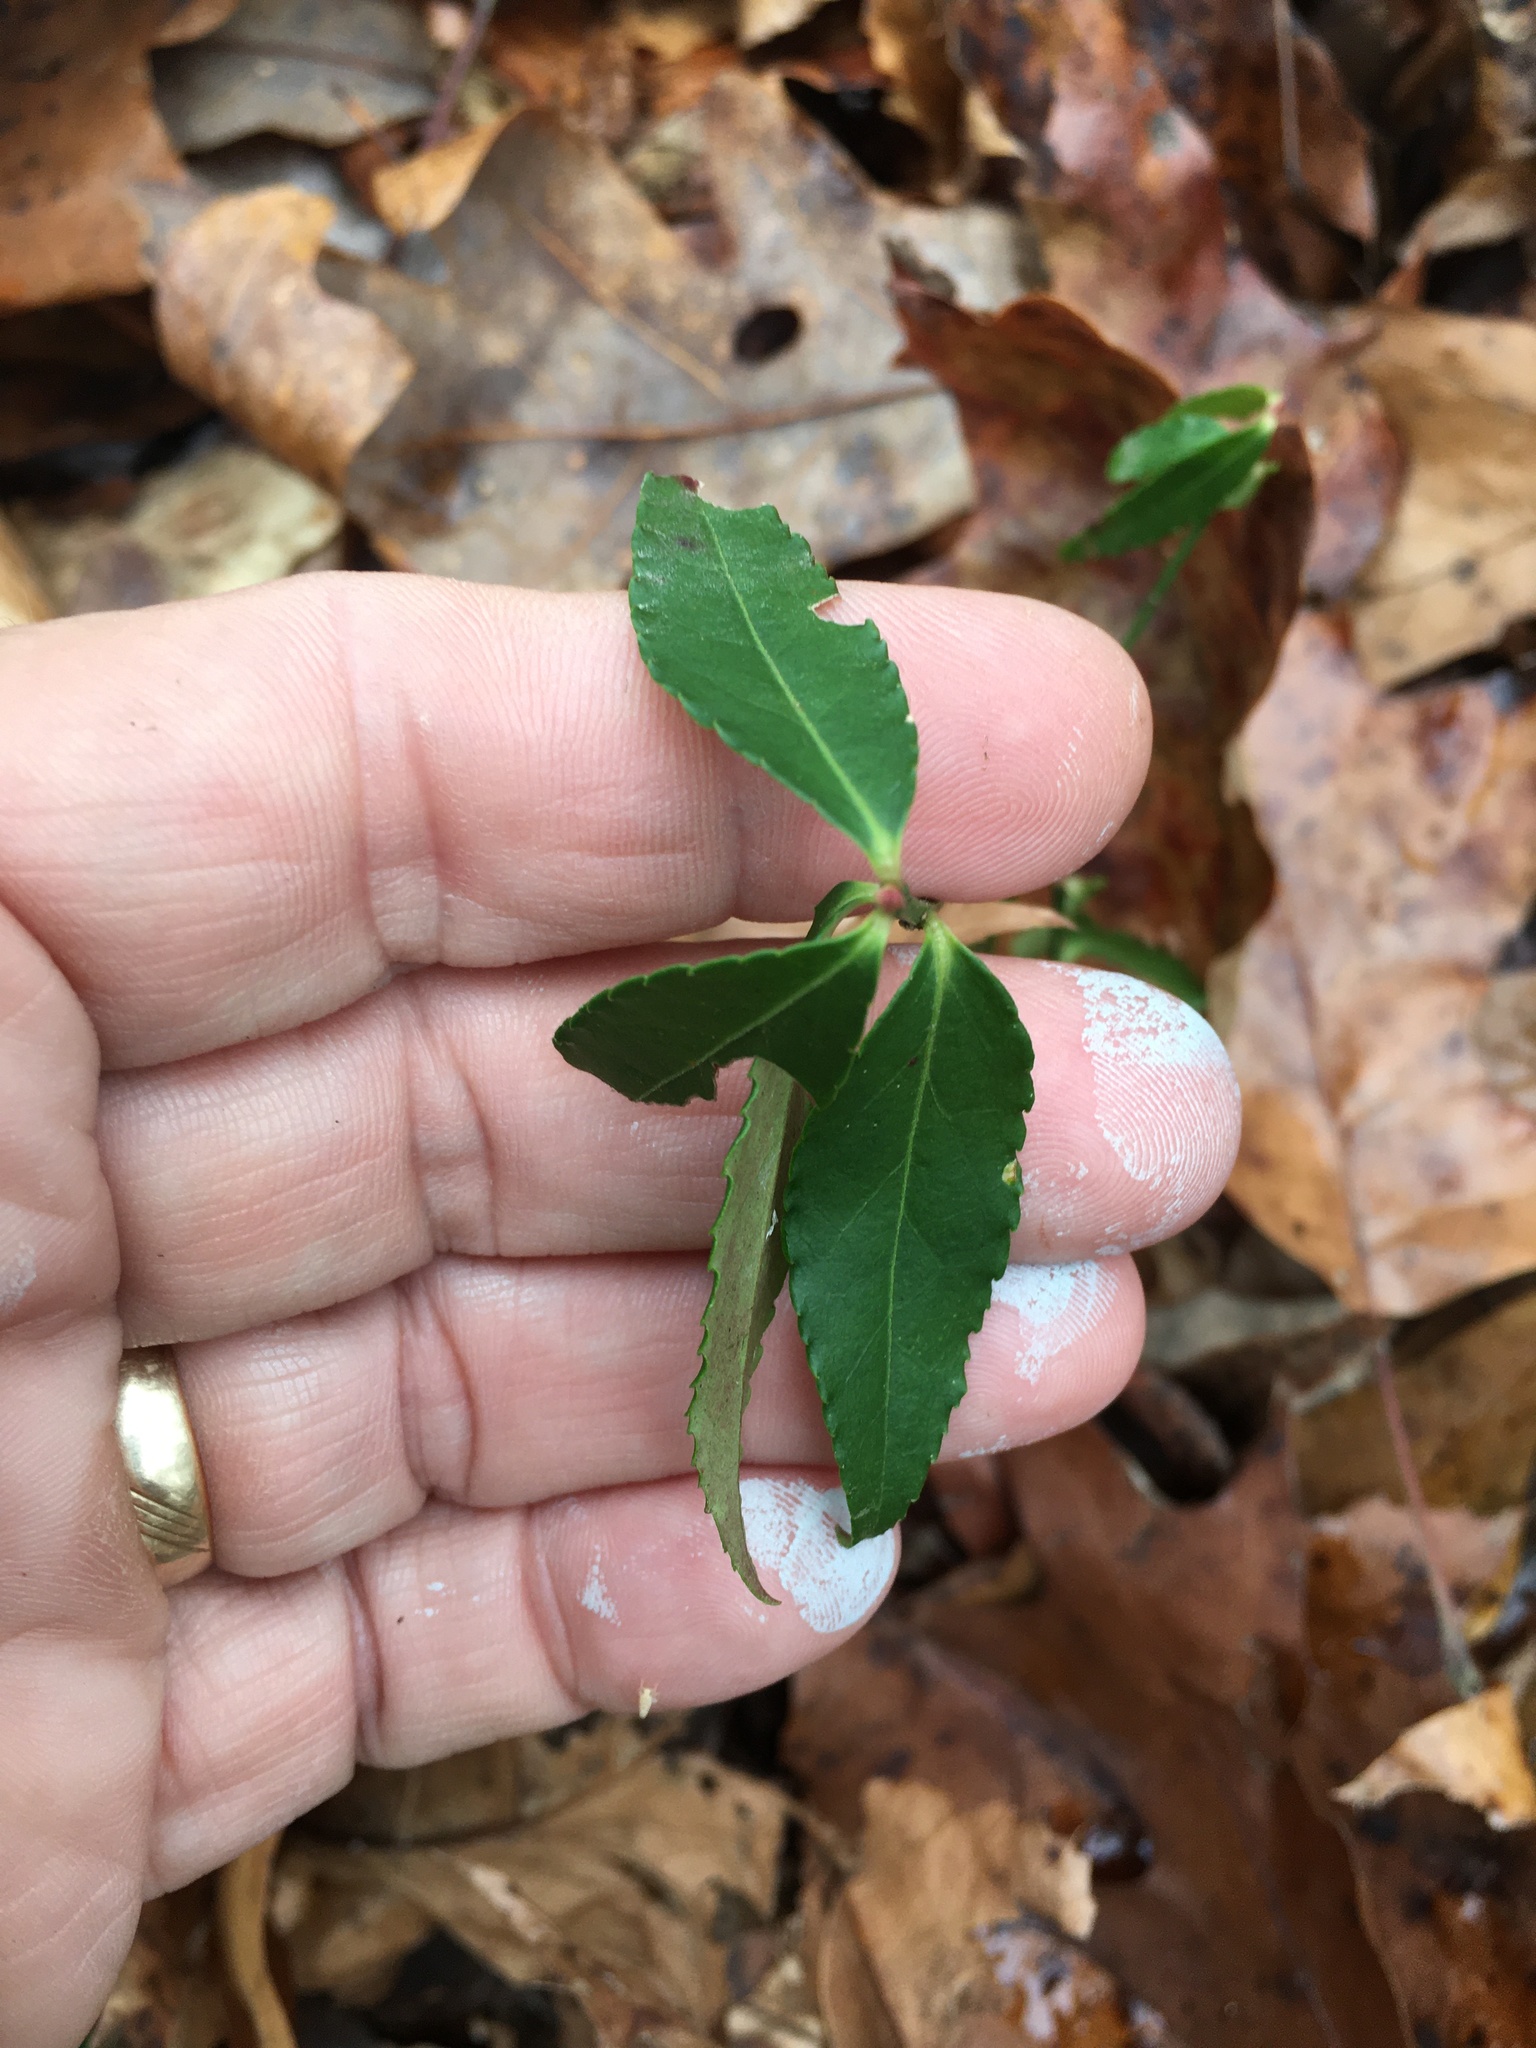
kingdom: Plantae
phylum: Tracheophyta
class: Magnoliopsida
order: Celastrales
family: Celastraceae
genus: Euonymus
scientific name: Euonymus americanus
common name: Bursting-heart
